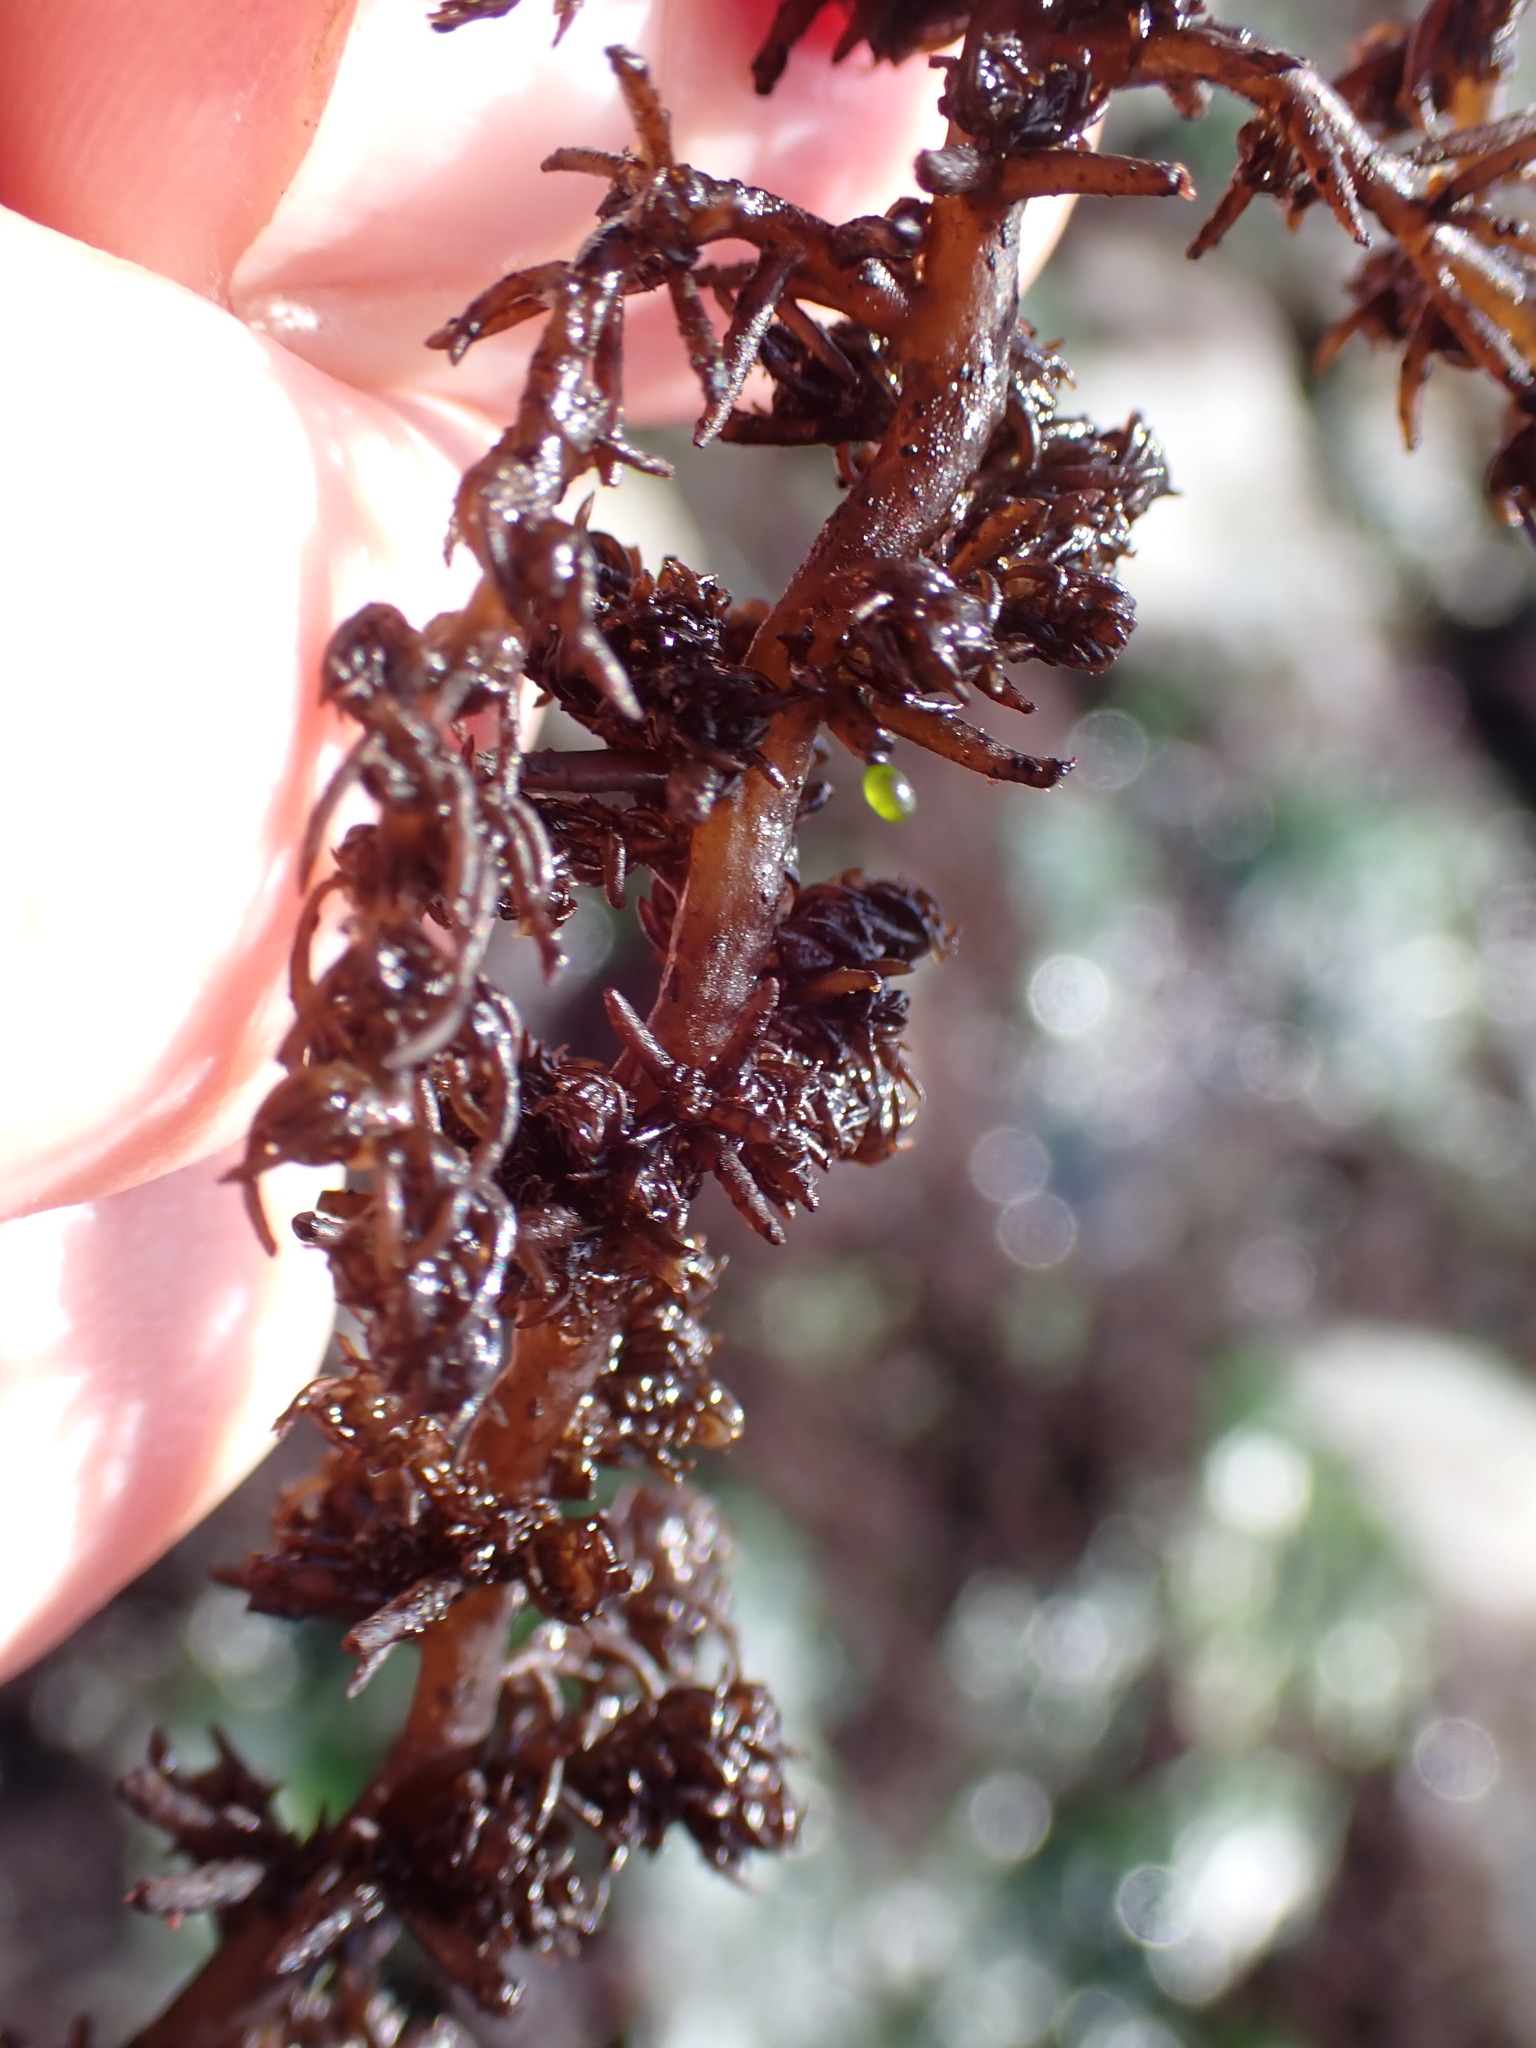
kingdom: Plantae
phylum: Rhodophyta
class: Florideophyceae
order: Ceramiales
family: Rhodomelaceae
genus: Neorhodomela
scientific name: Neorhodomela larix
